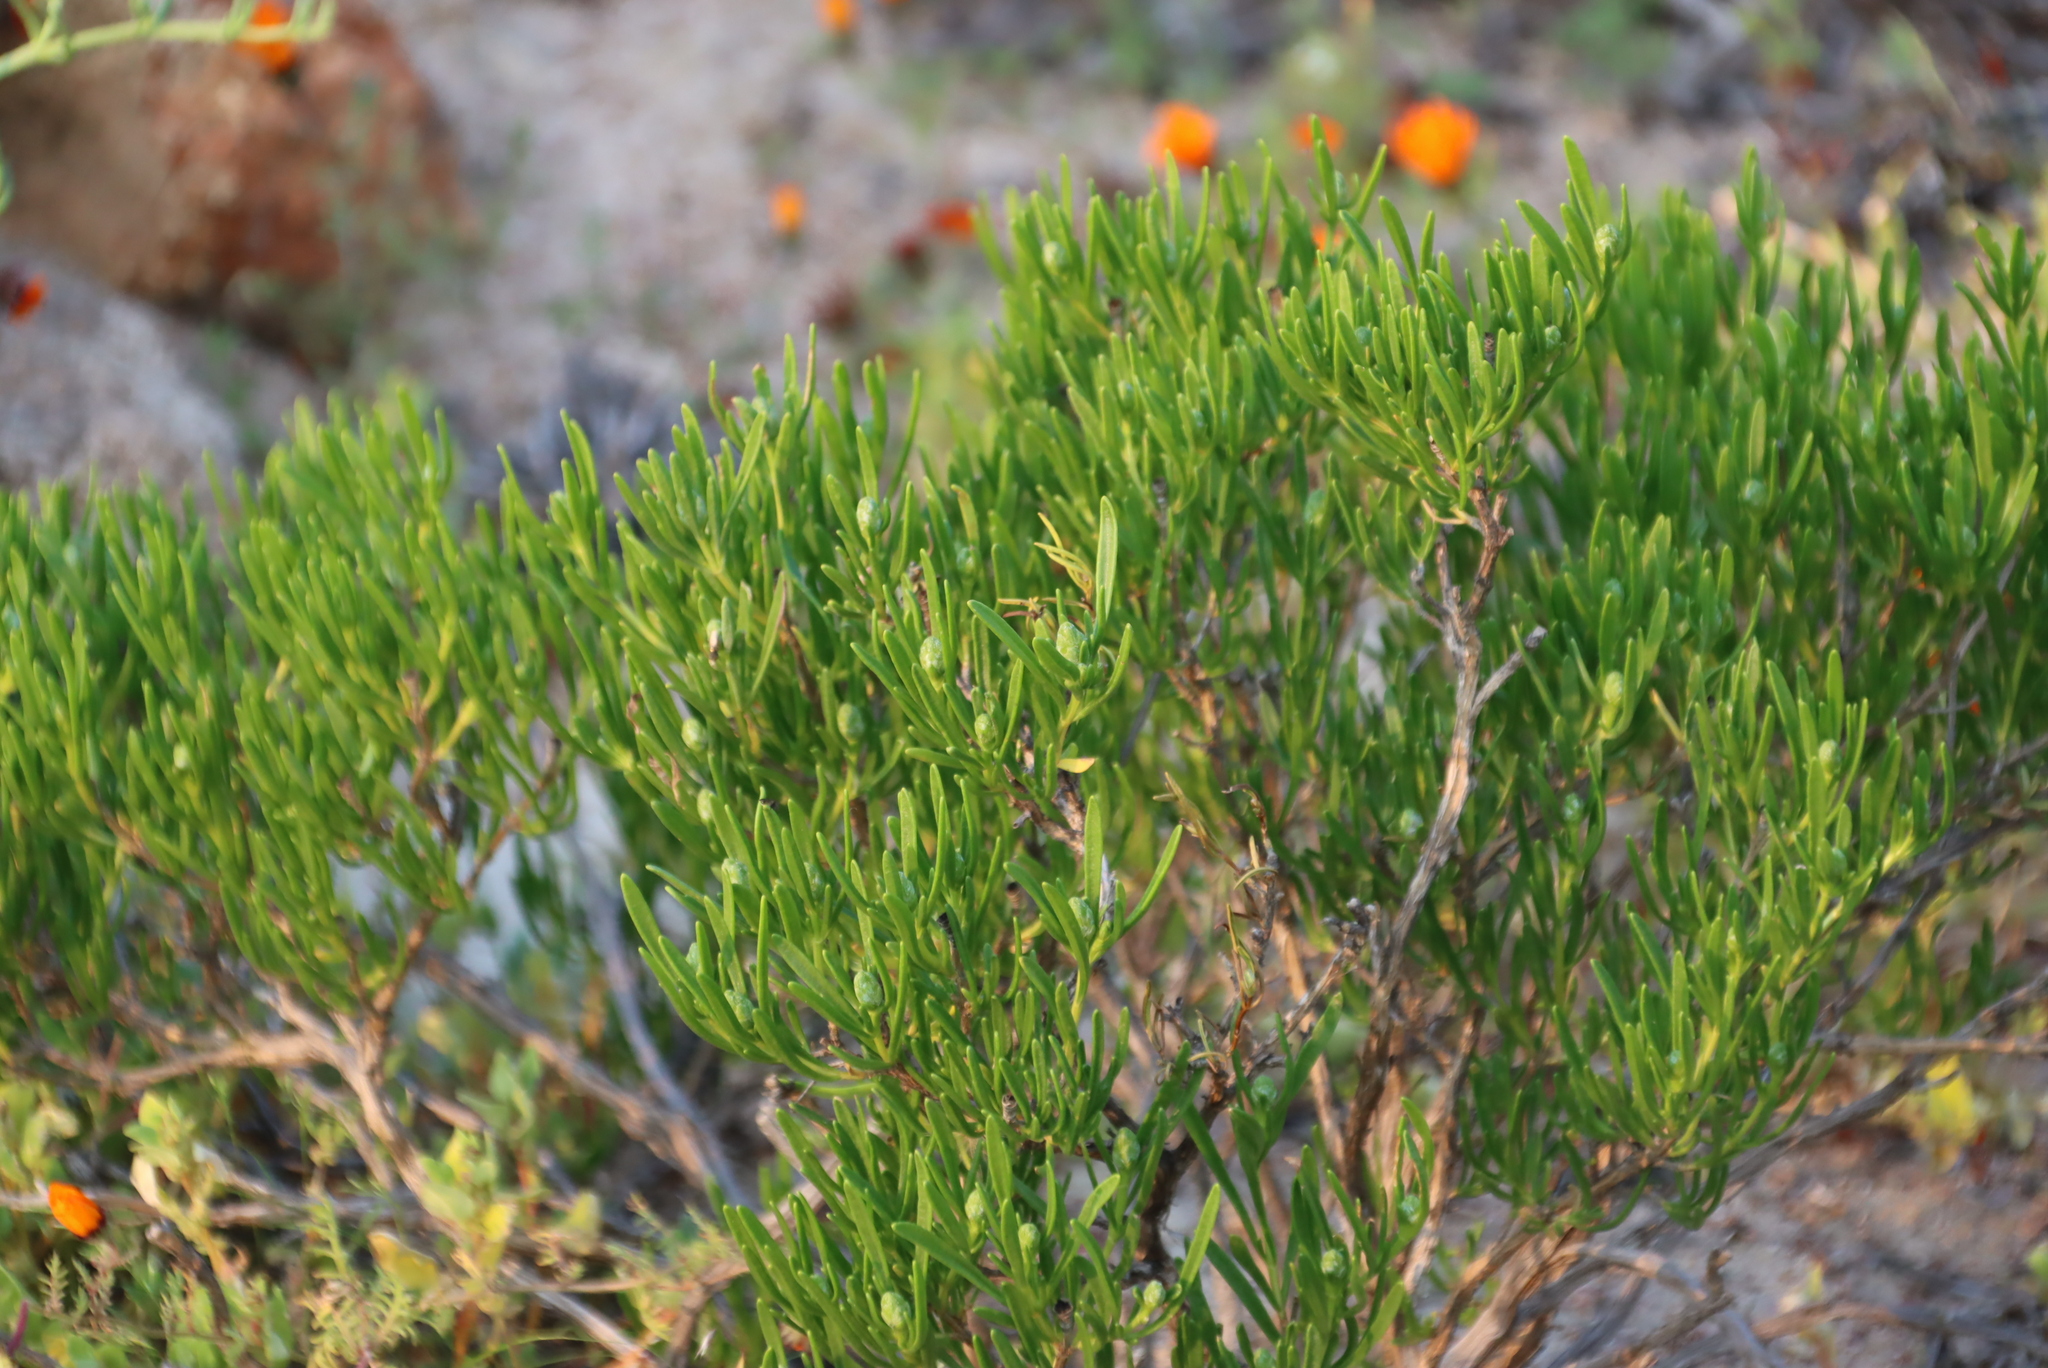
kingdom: Plantae
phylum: Tracheophyta
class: Magnoliopsida
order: Asterales
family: Asteraceae
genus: Pteronia
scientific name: Pteronia pillansii
